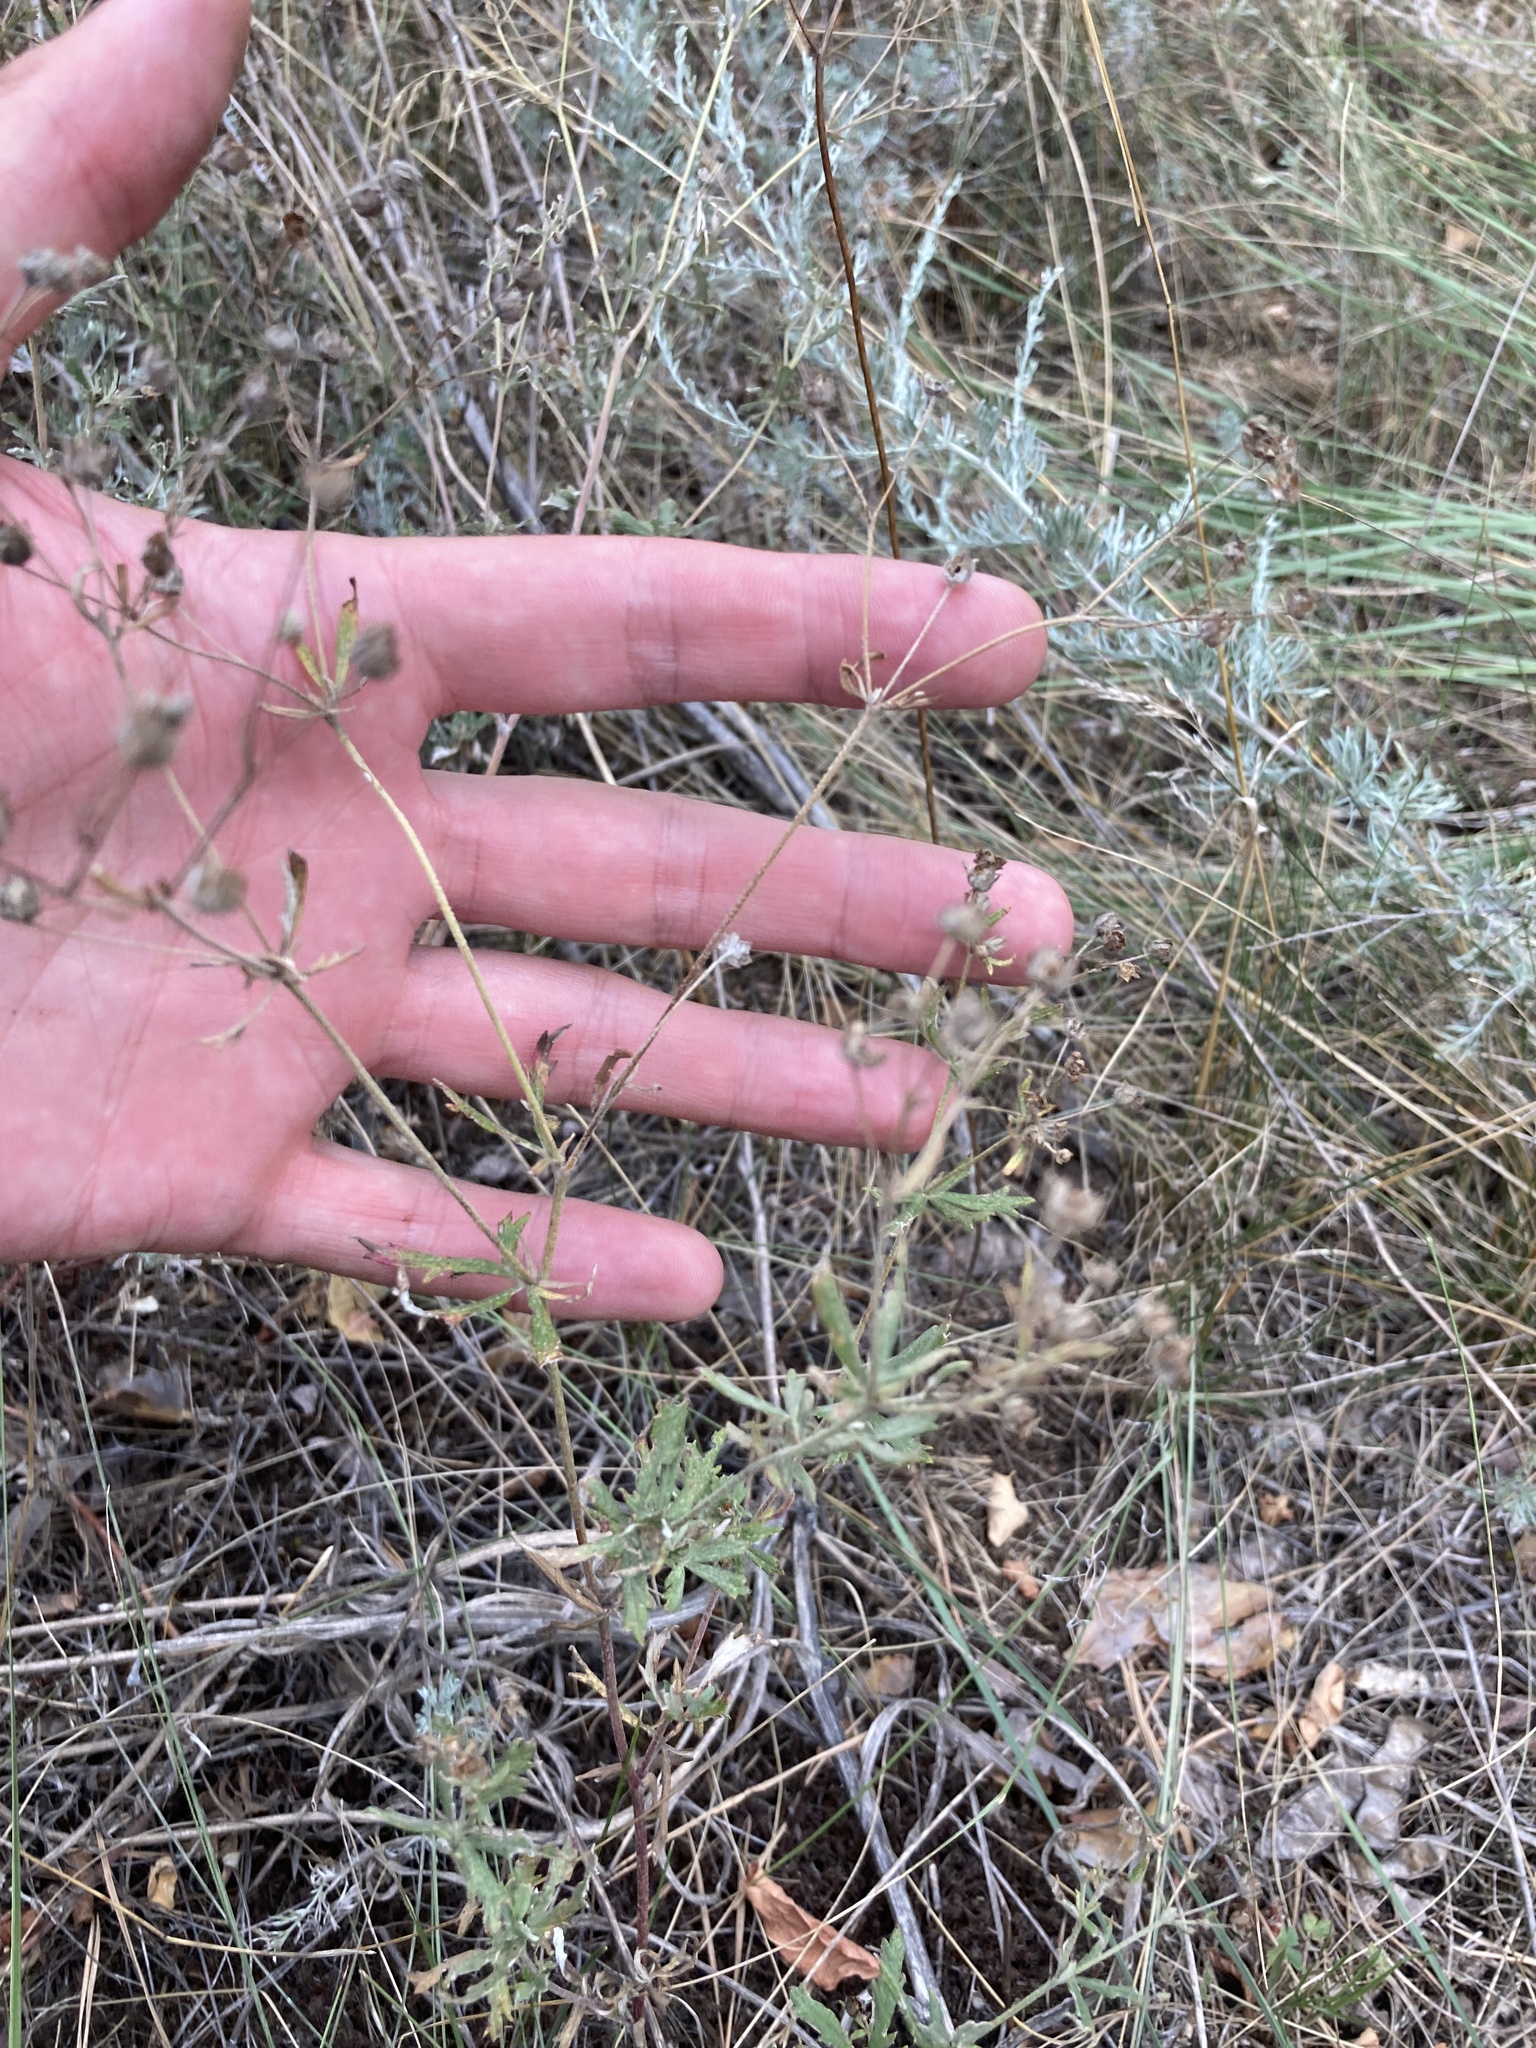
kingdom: Plantae
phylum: Tracheophyta
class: Magnoliopsida
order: Rosales
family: Rosaceae
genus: Potentilla
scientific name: Potentilla argentea
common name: Hoary cinquefoil
